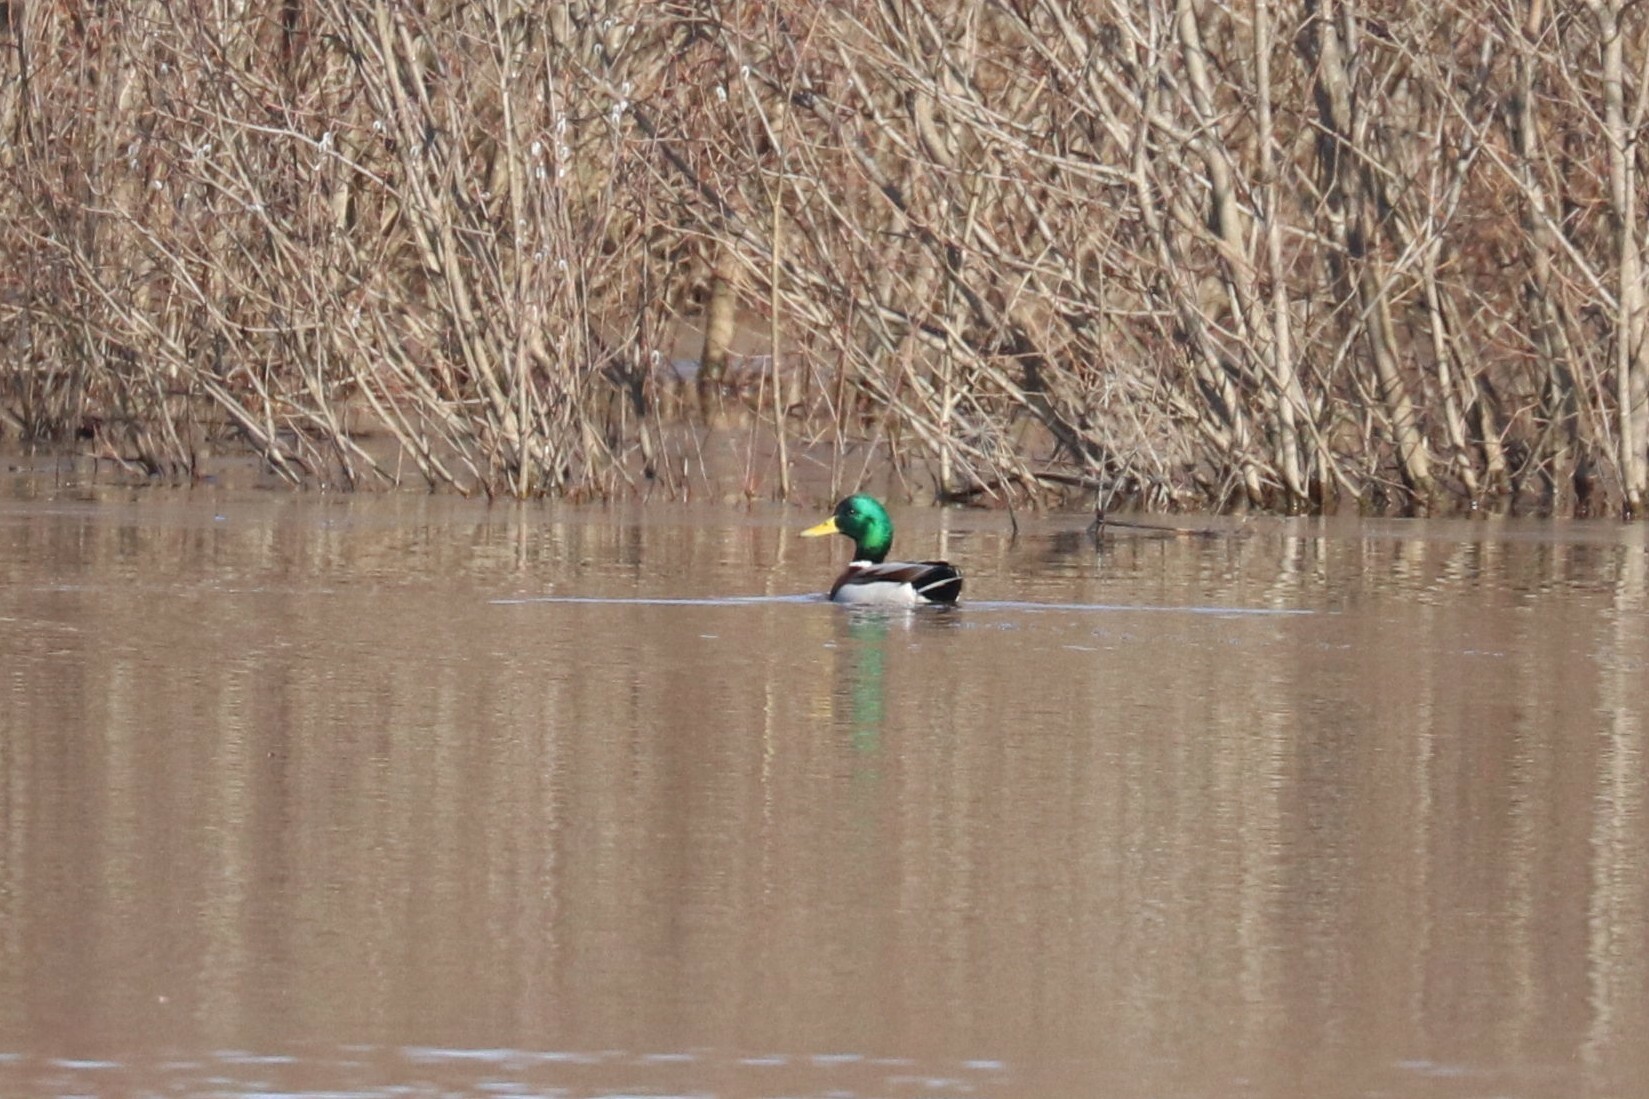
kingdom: Animalia
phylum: Chordata
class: Aves
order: Anseriformes
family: Anatidae
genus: Anas
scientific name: Anas platyrhynchos
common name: Mallard
